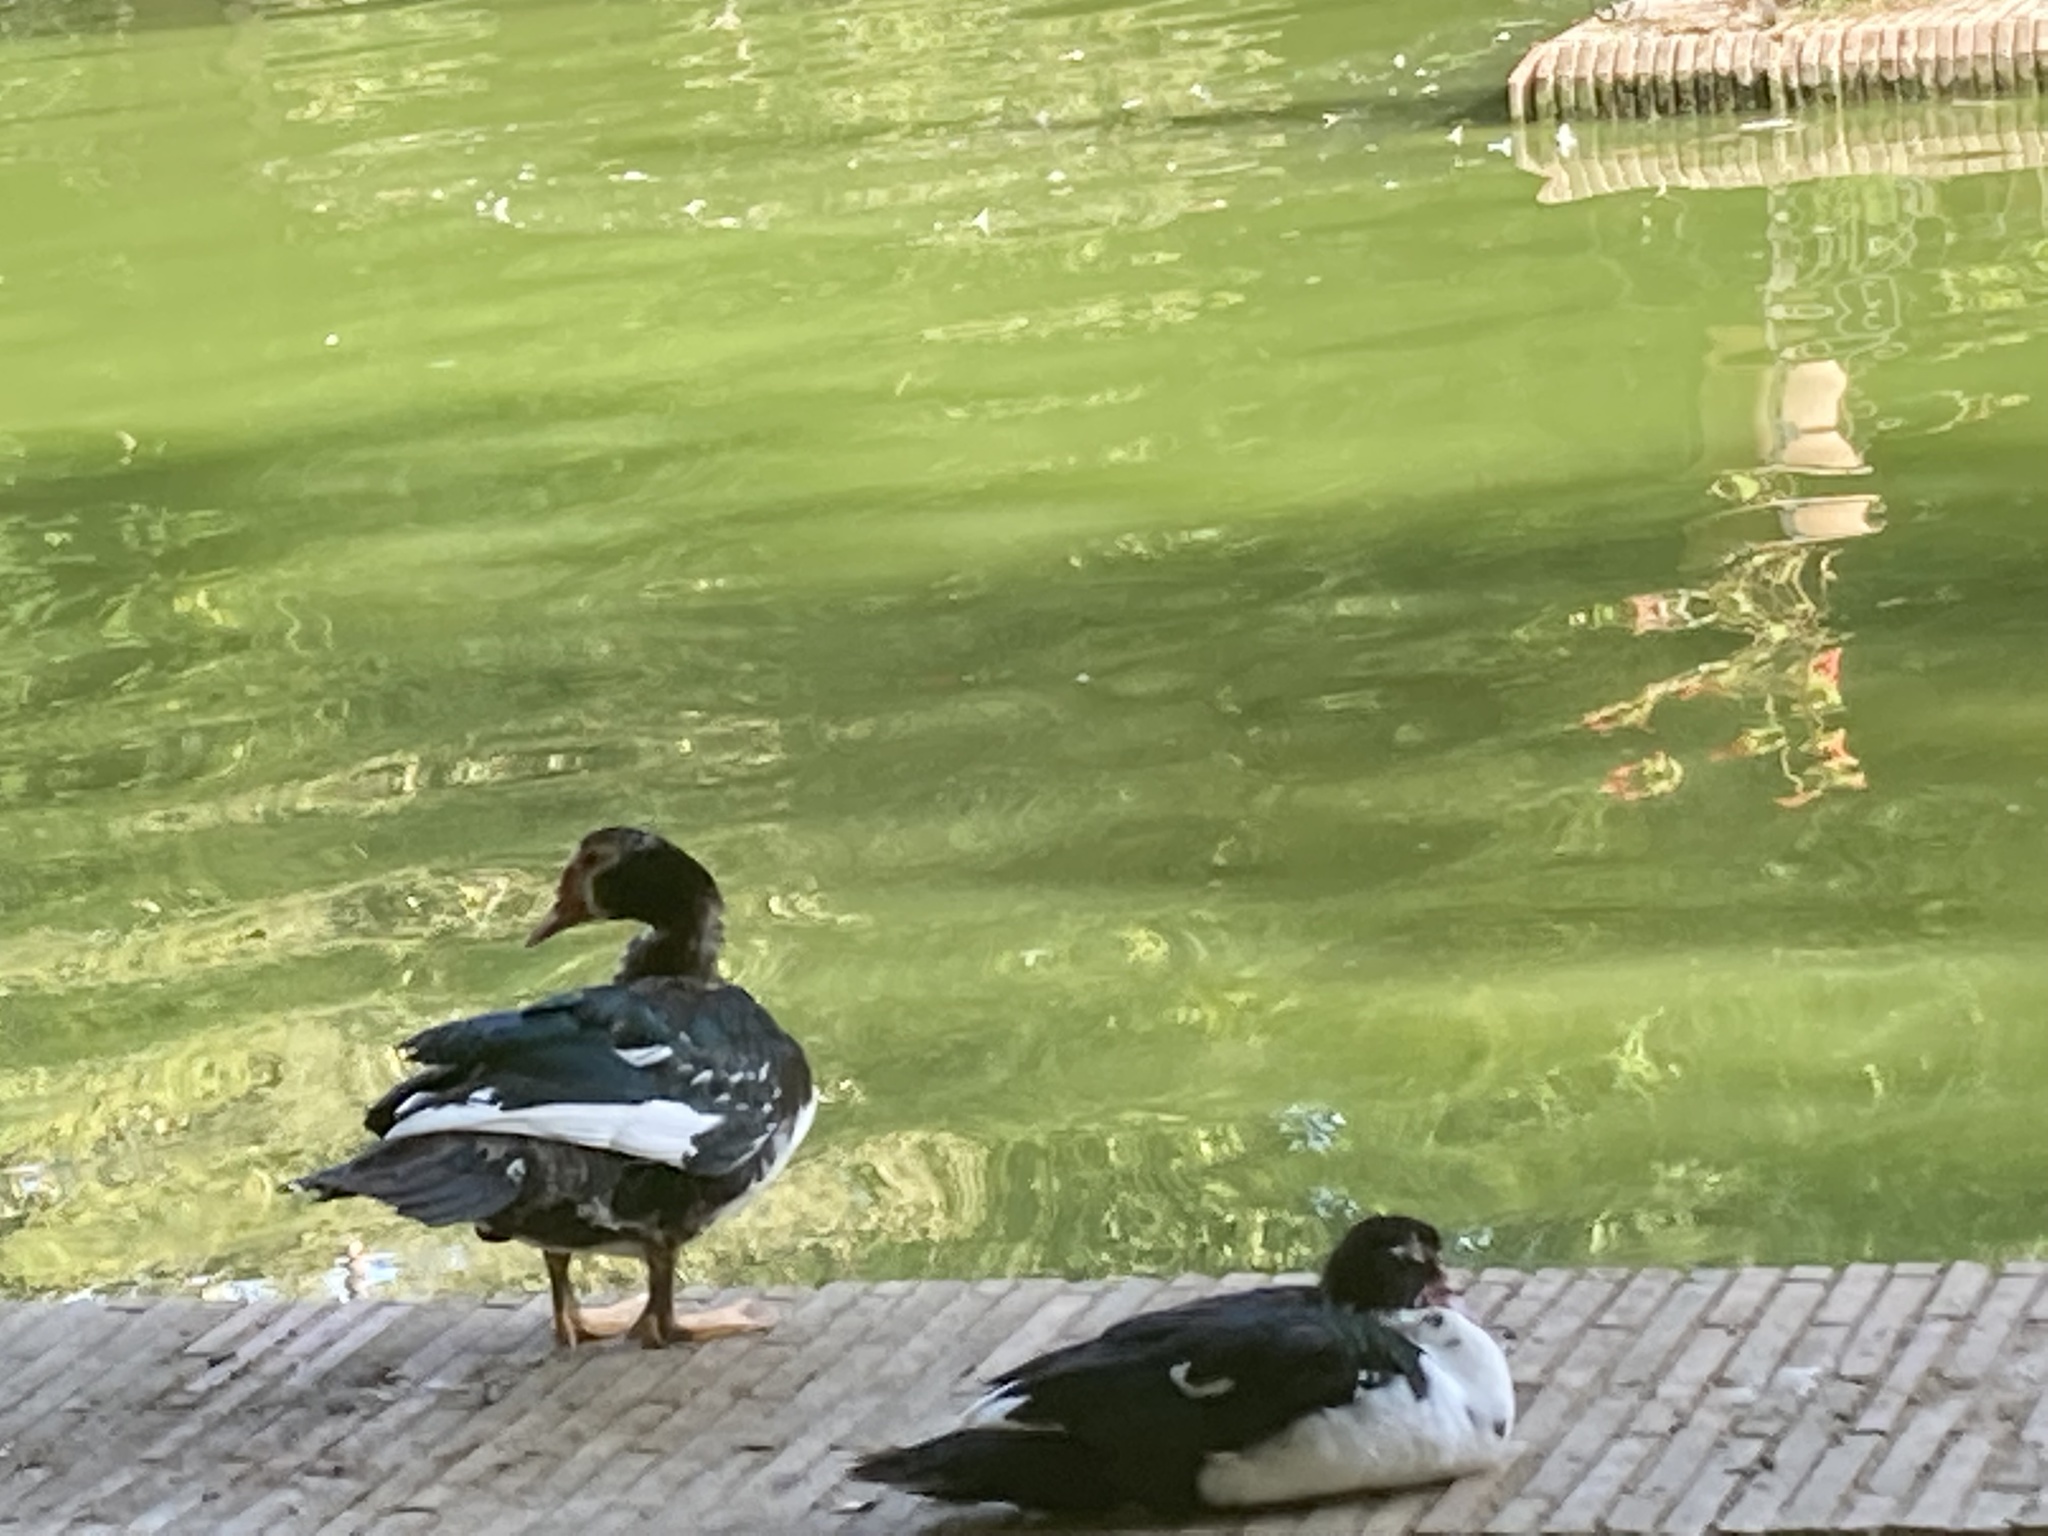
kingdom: Animalia
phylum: Chordata
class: Aves
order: Anseriformes
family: Anatidae
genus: Cairina
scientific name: Cairina moschata
